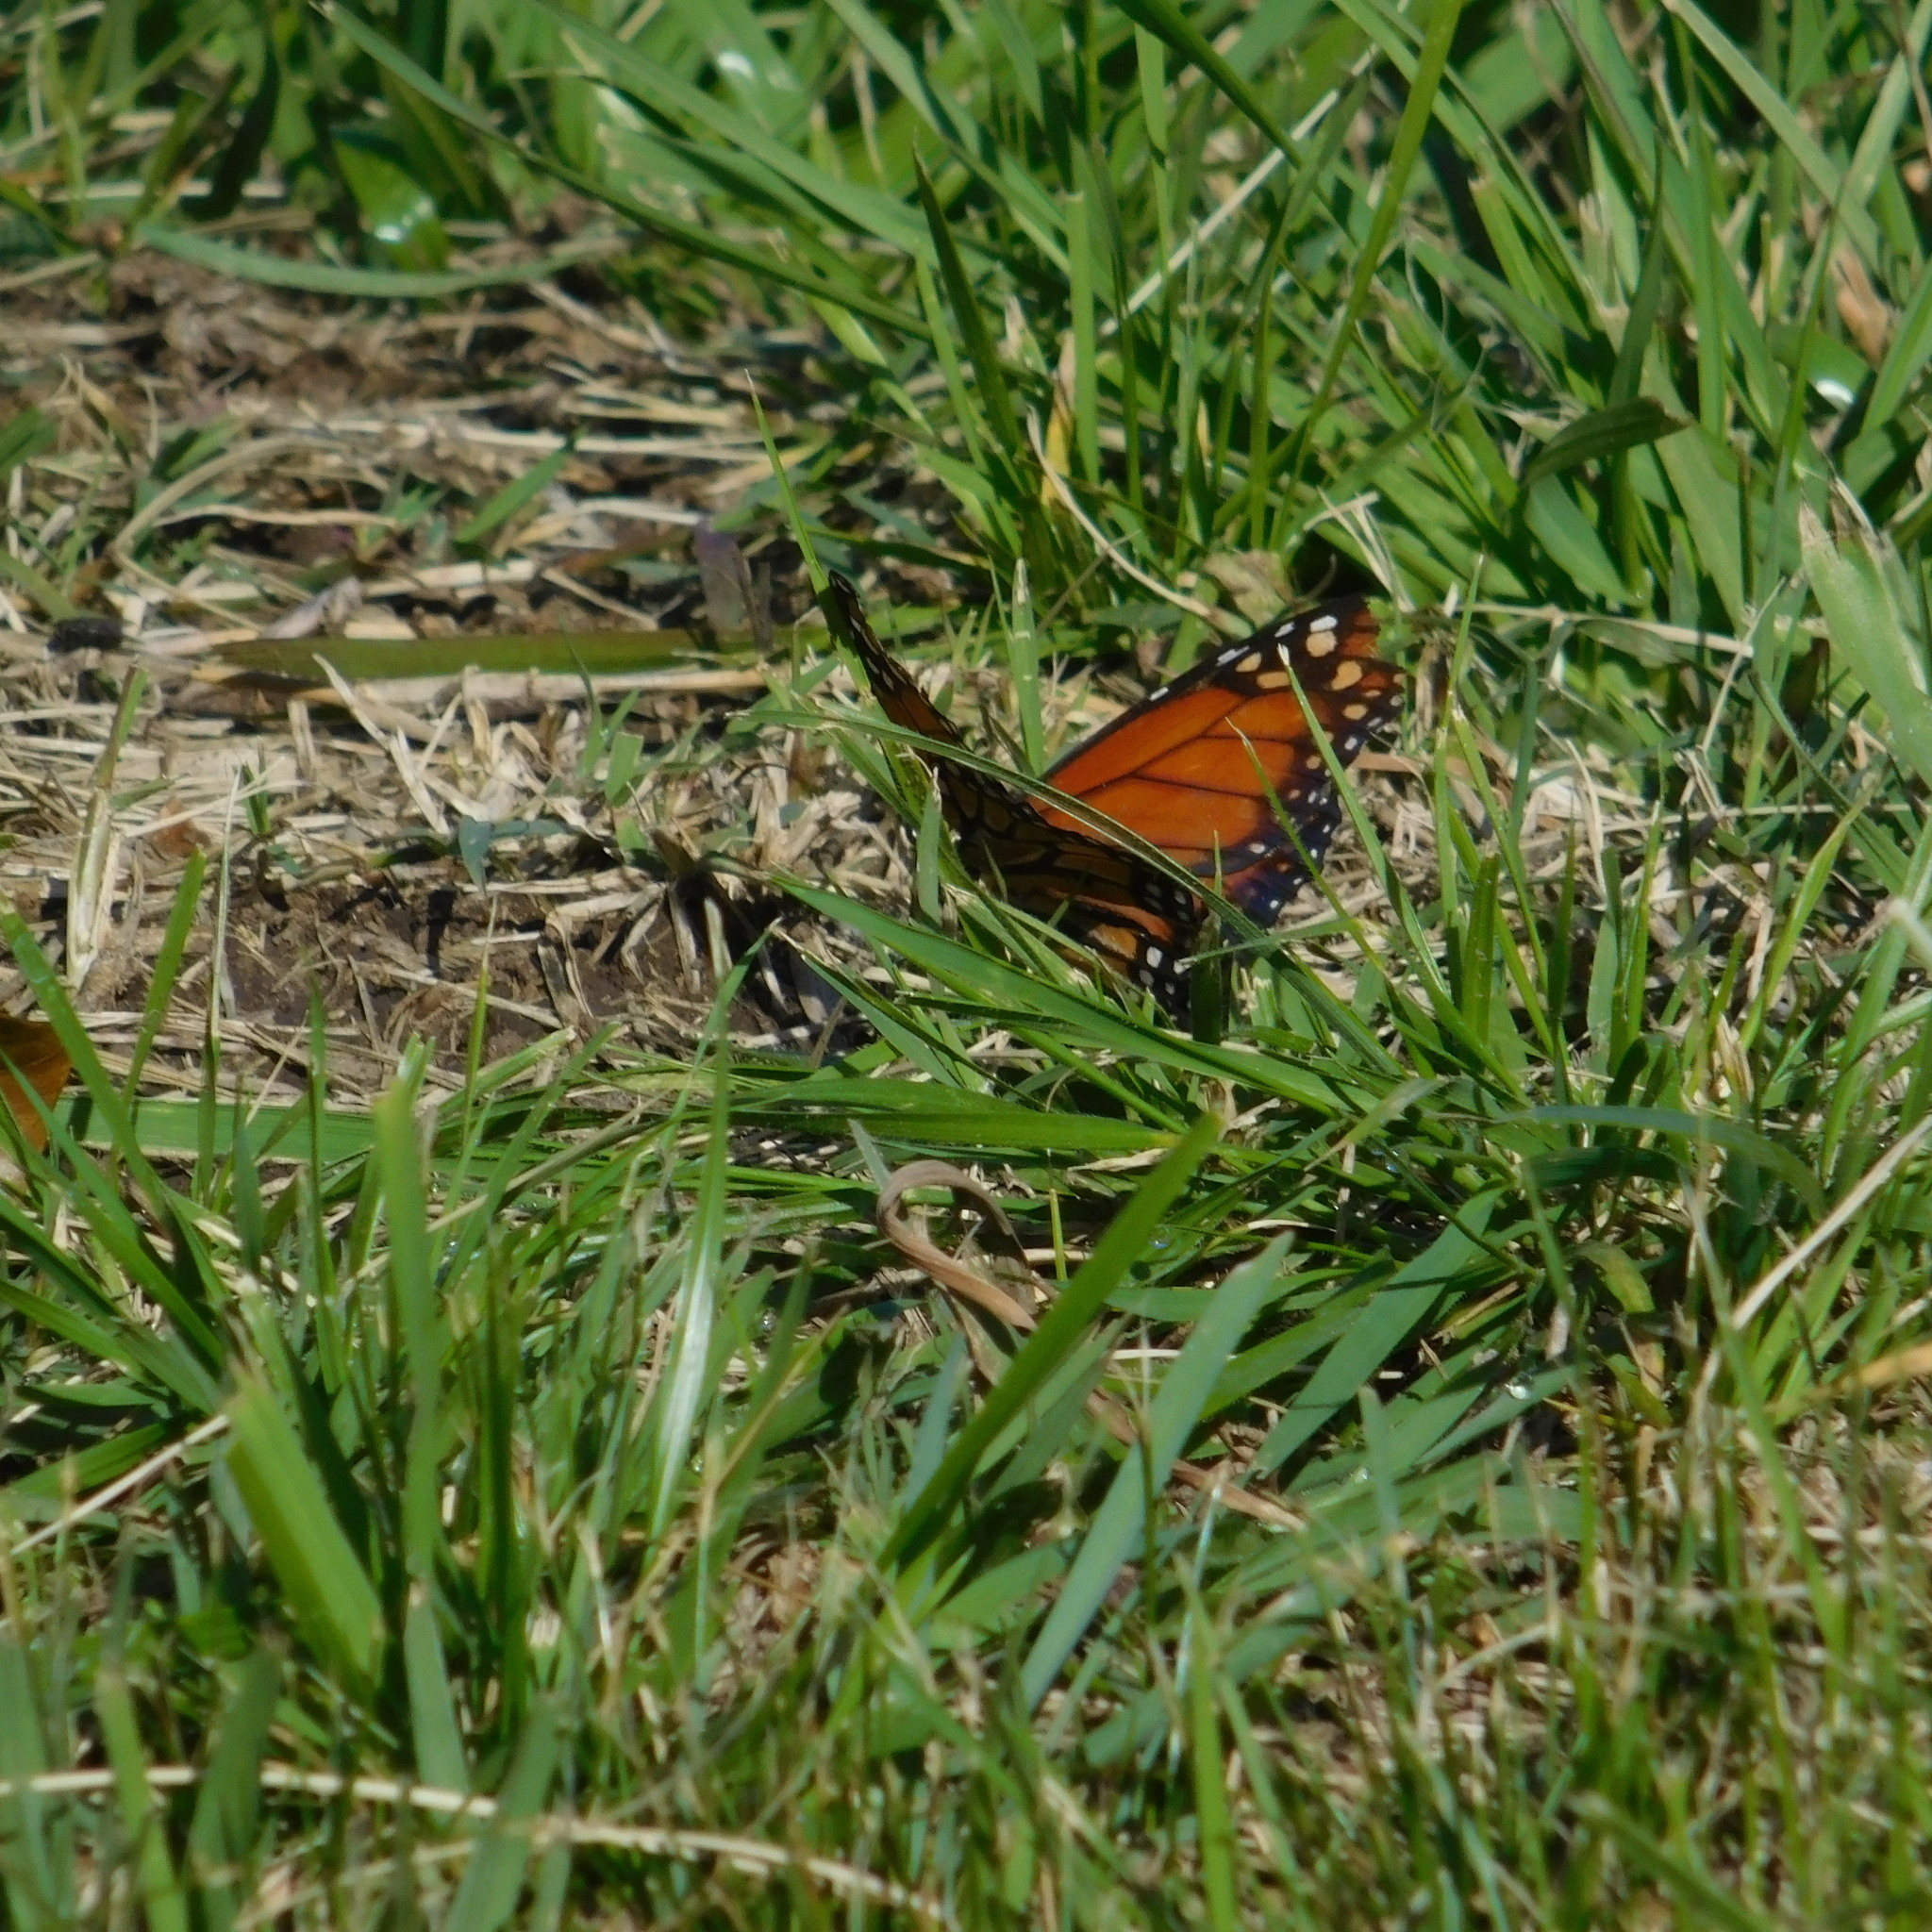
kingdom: Animalia
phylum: Arthropoda
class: Insecta
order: Lepidoptera
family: Nymphalidae
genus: Danaus
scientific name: Danaus erippus
